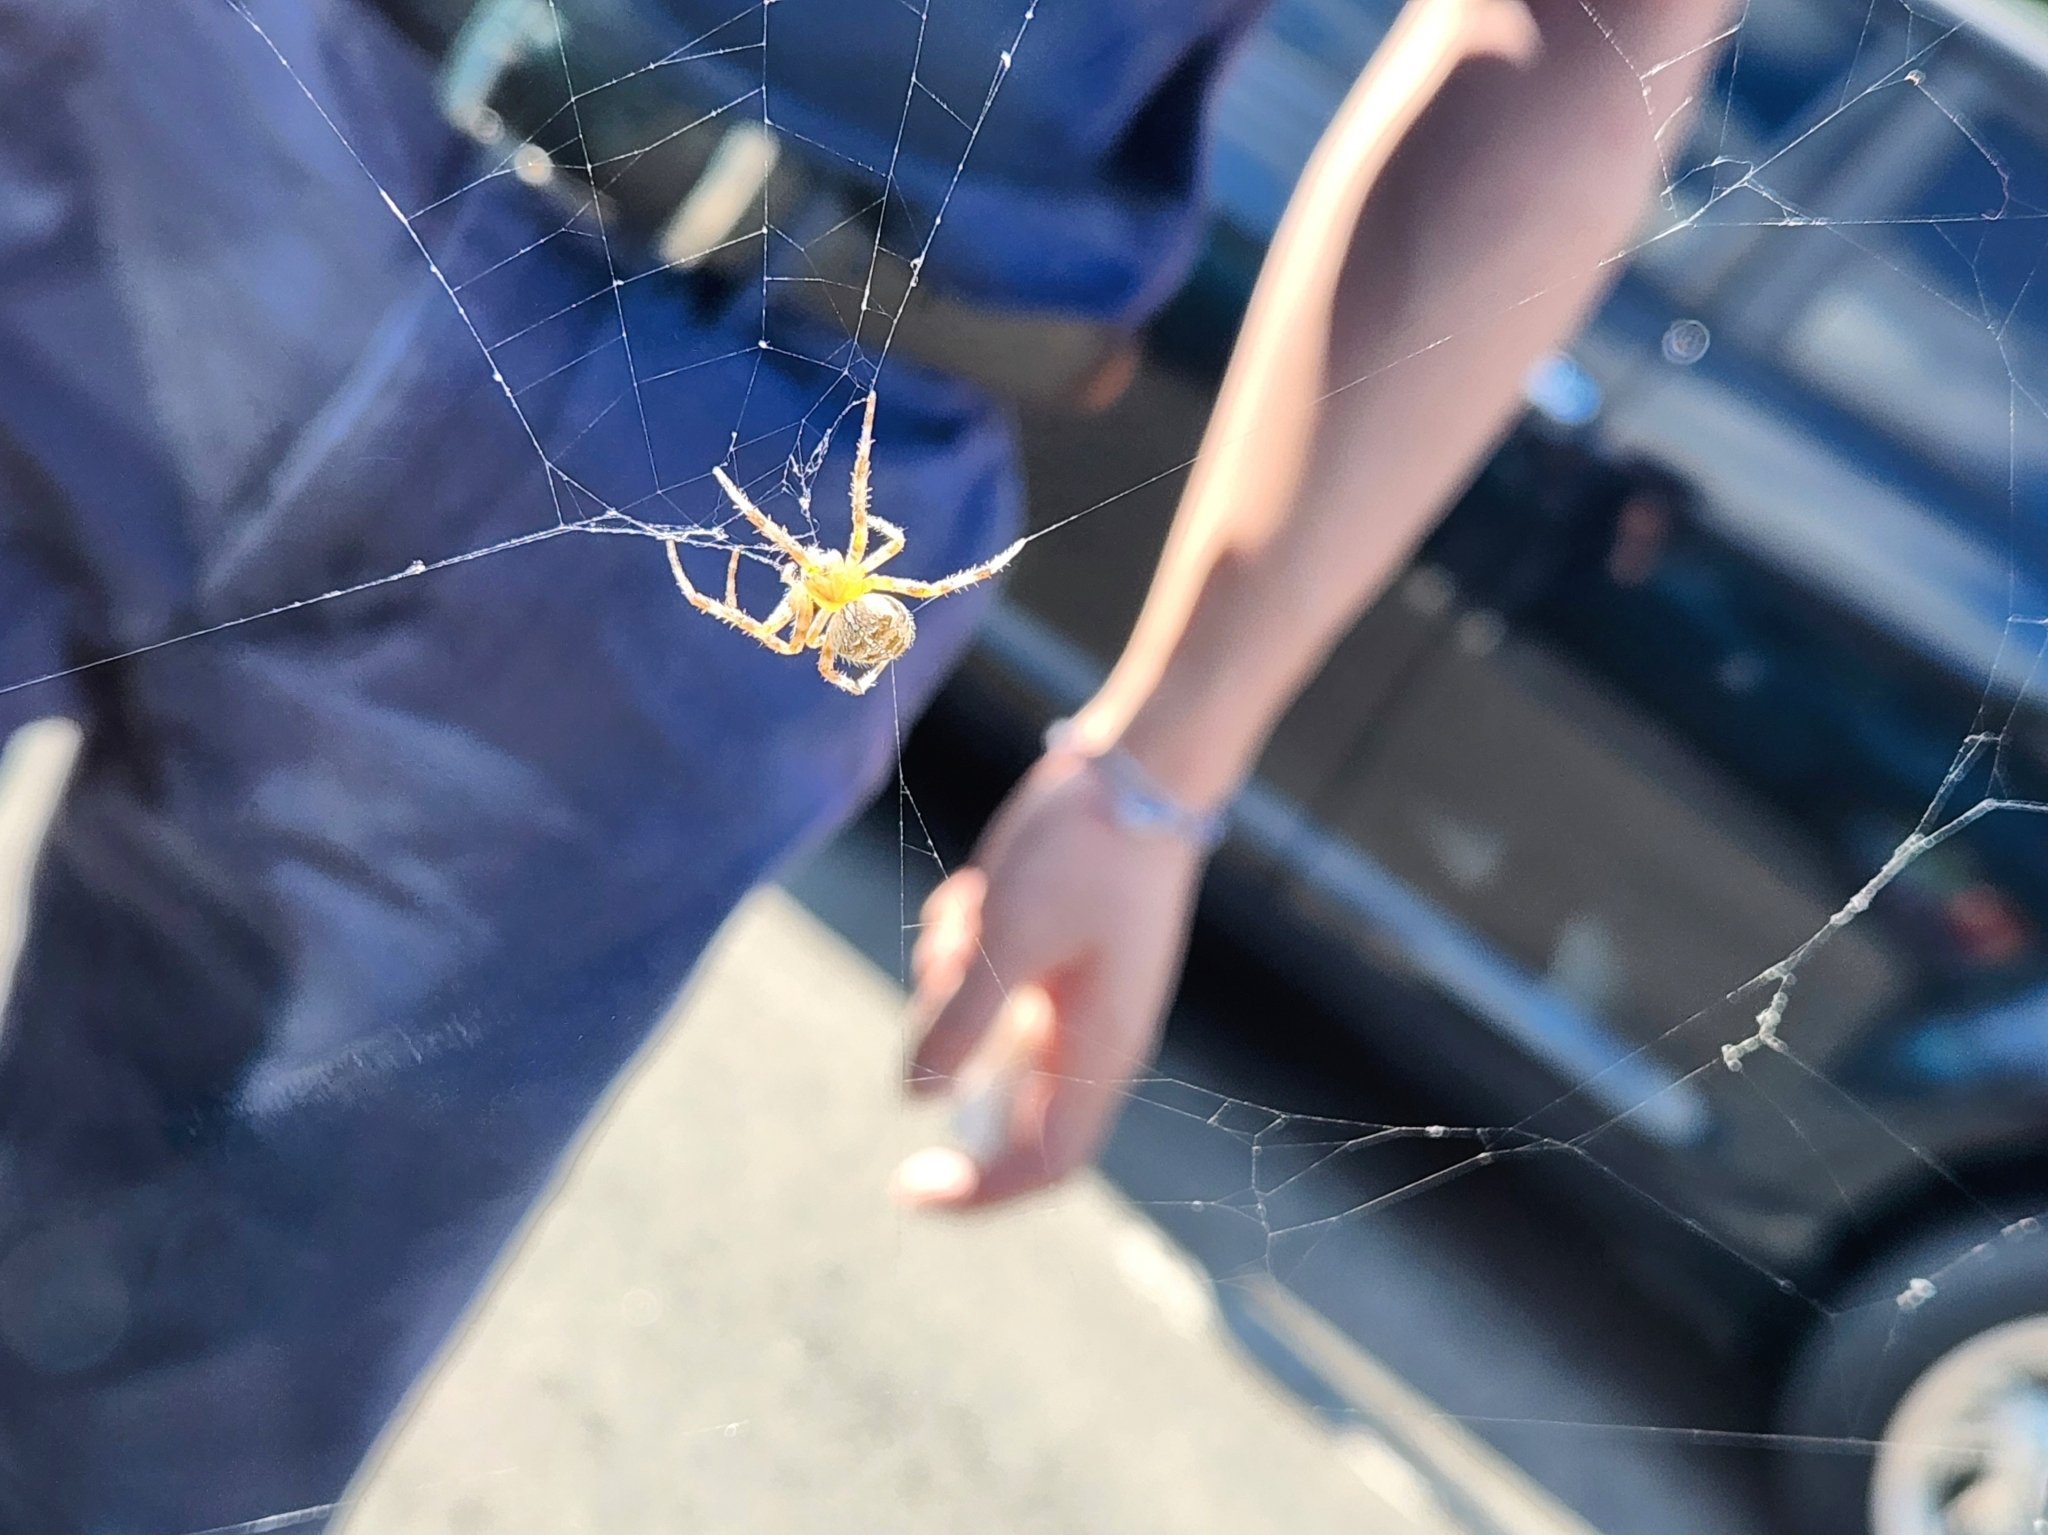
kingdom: Animalia
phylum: Arthropoda
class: Arachnida
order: Araneae
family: Araneidae
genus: Araneus
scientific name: Araneus diadematus
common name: Cross orbweaver
